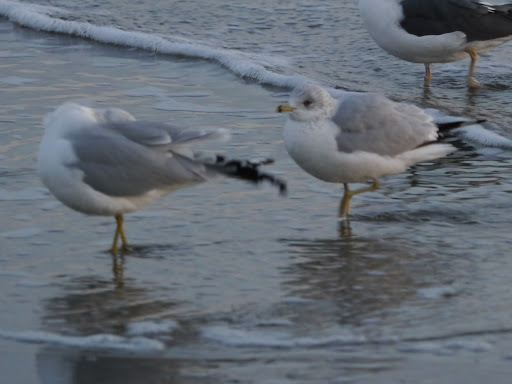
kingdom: Animalia
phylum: Chordata
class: Aves
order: Charadriiformes
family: Laridae
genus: Larus
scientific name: Larus delawarensis
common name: Ring-billed gull
